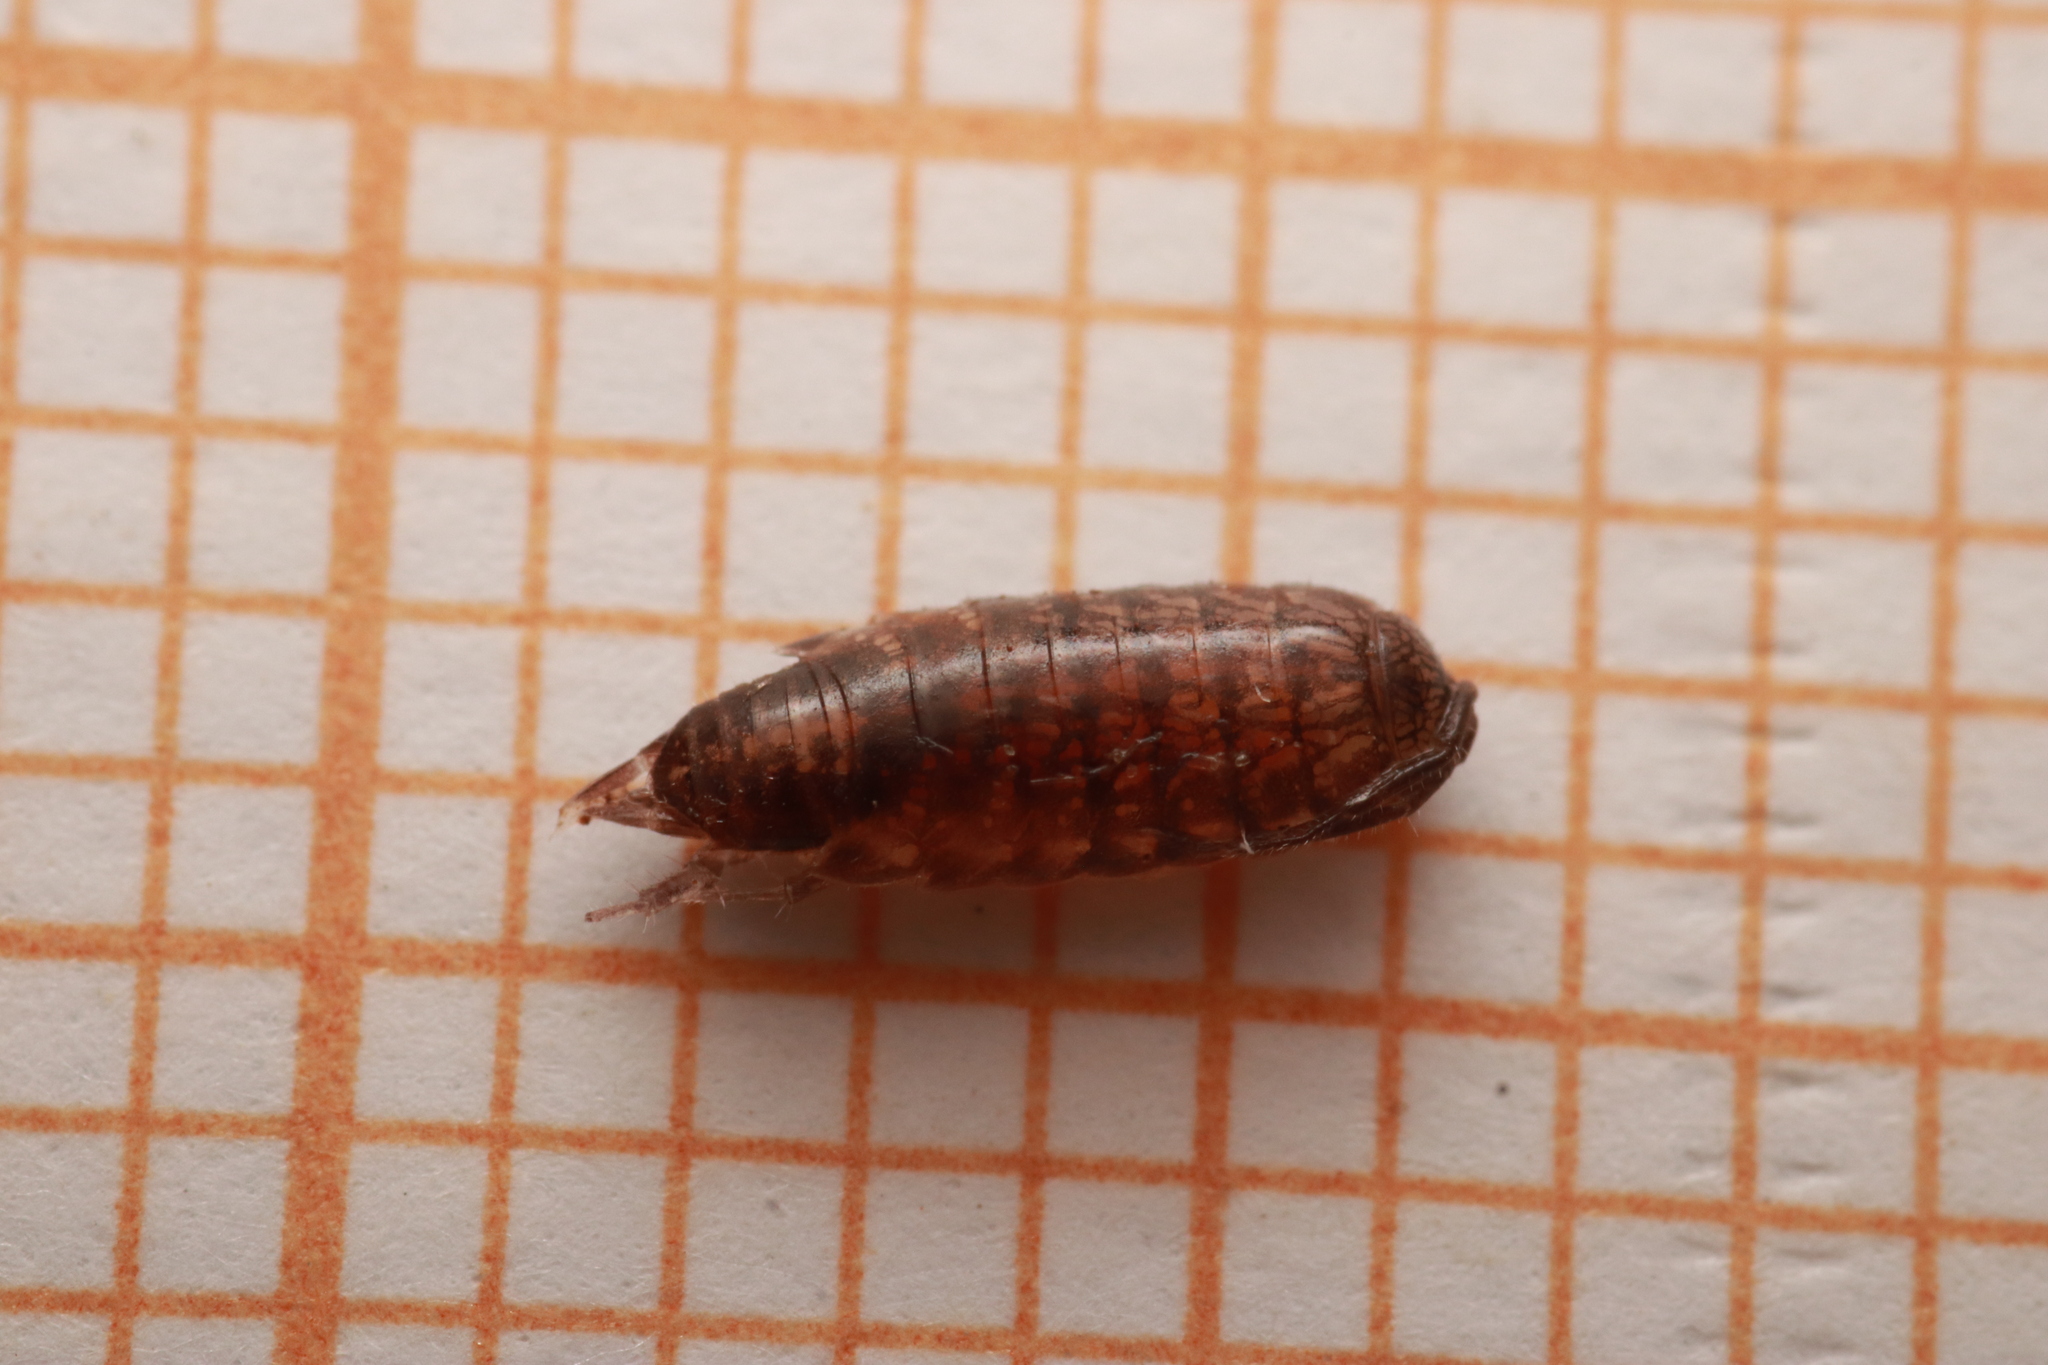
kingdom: Animalia
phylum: Arthropoda
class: Malacostraca
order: Isopoda
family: Philosciidae
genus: Chaetophiloscia
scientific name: Chaetophiloscia sicula
